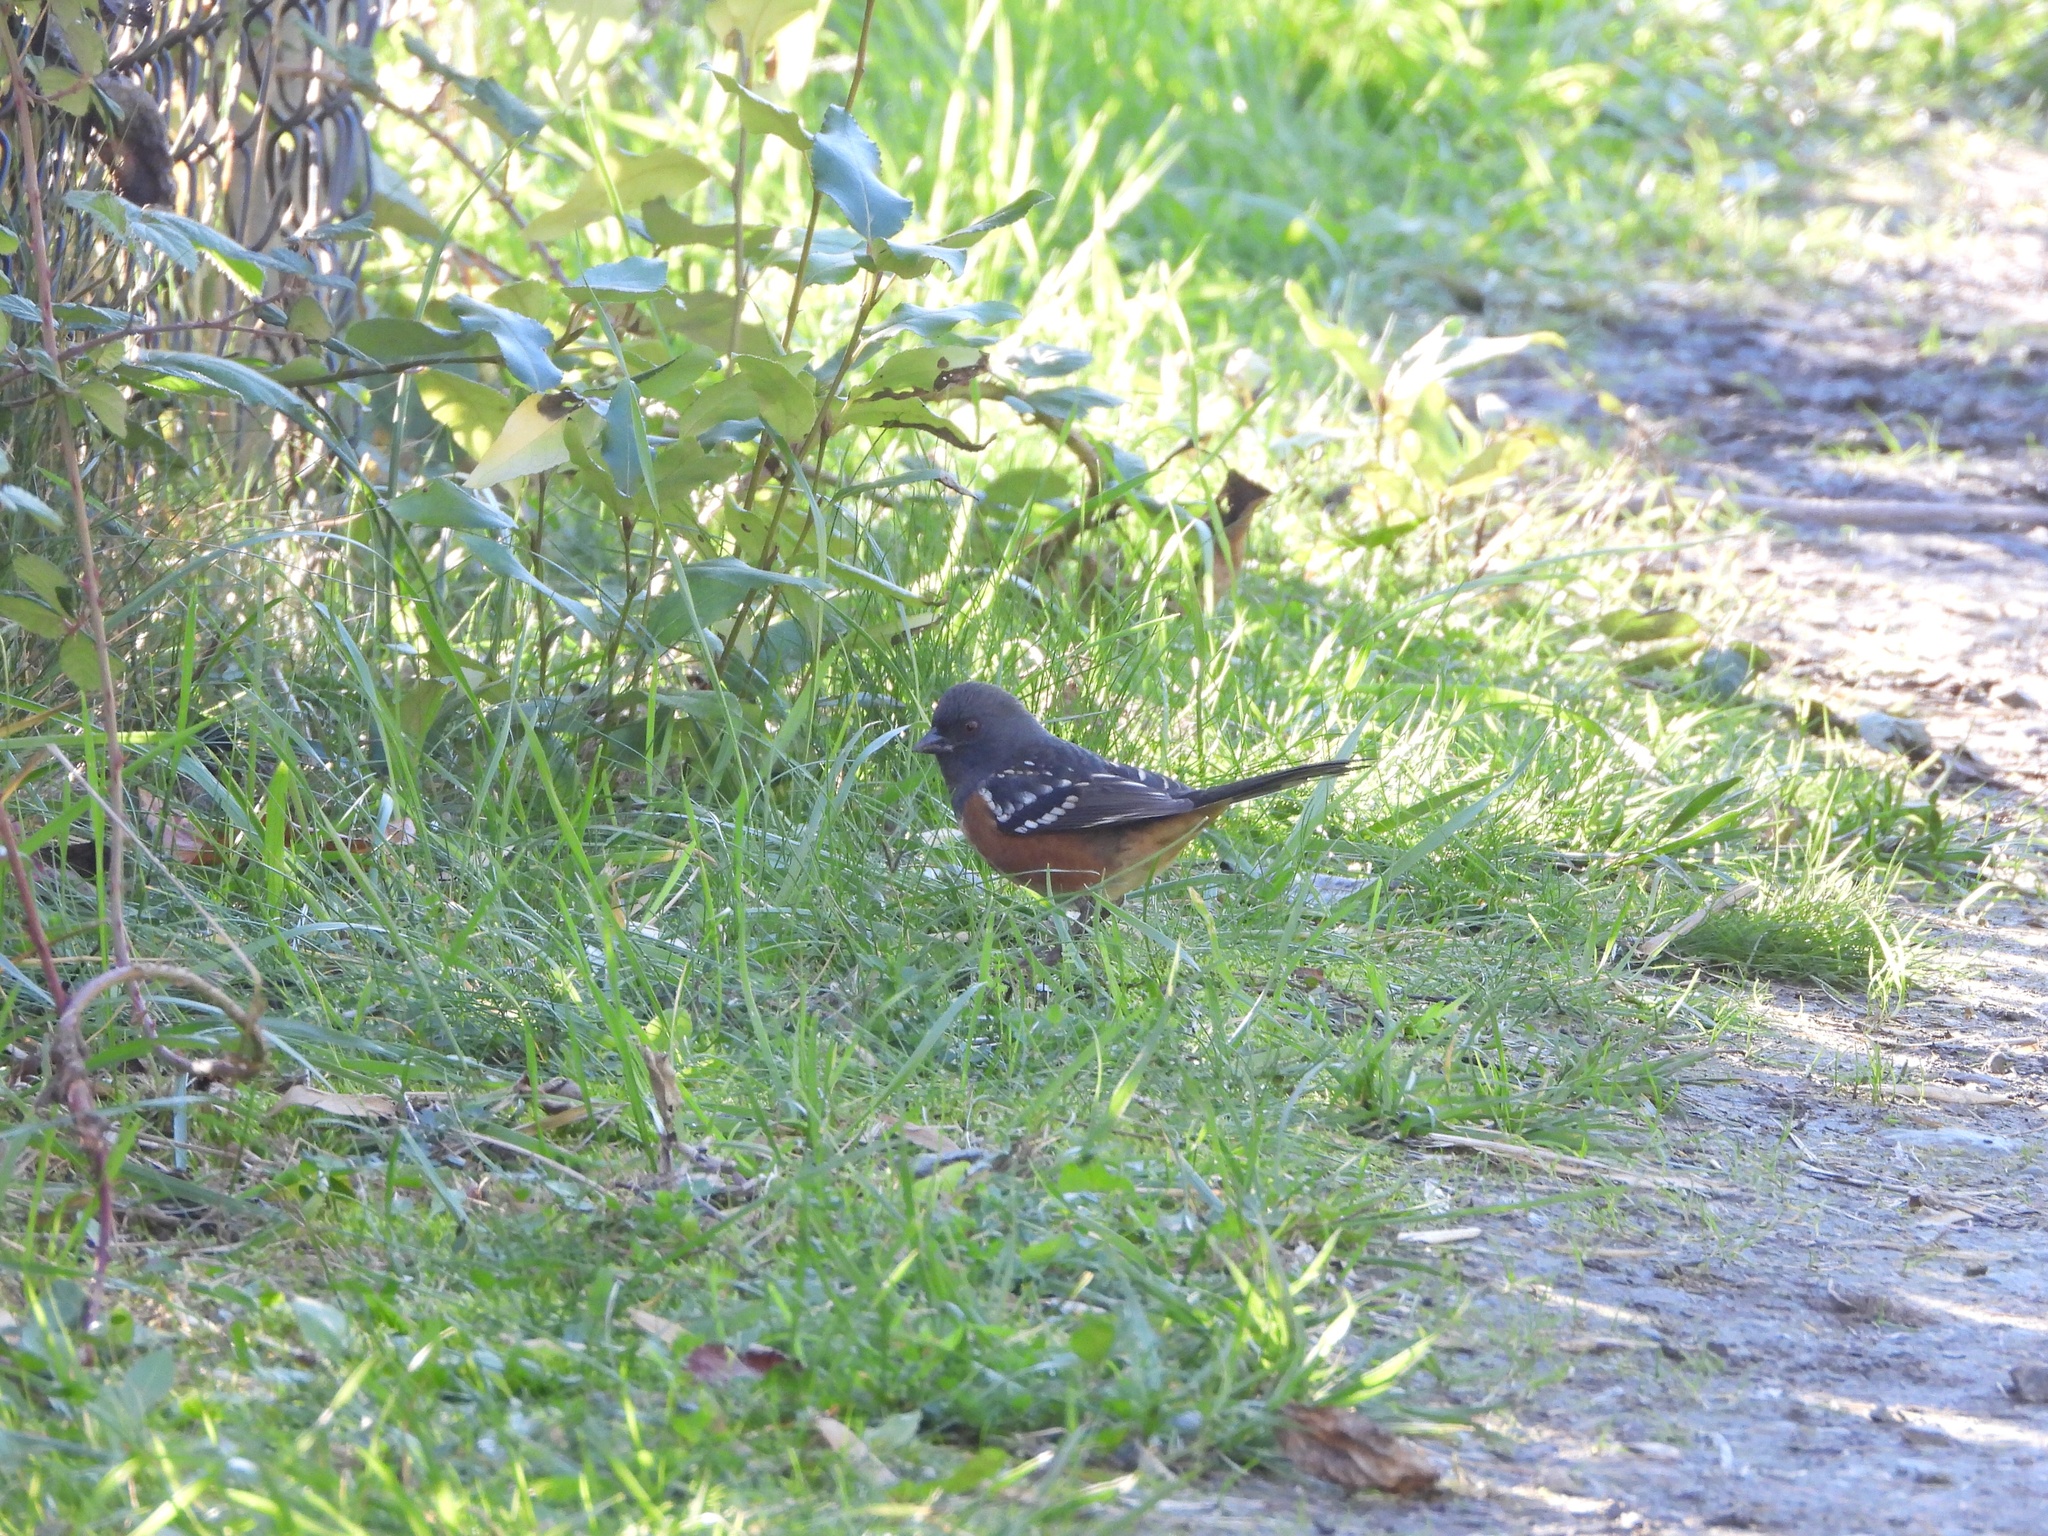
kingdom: Animalia
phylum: Chordata
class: Aves
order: Passeriformes
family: Passerellidae
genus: Pipilo
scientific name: Pipilo maculatus
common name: Spotted towhee
